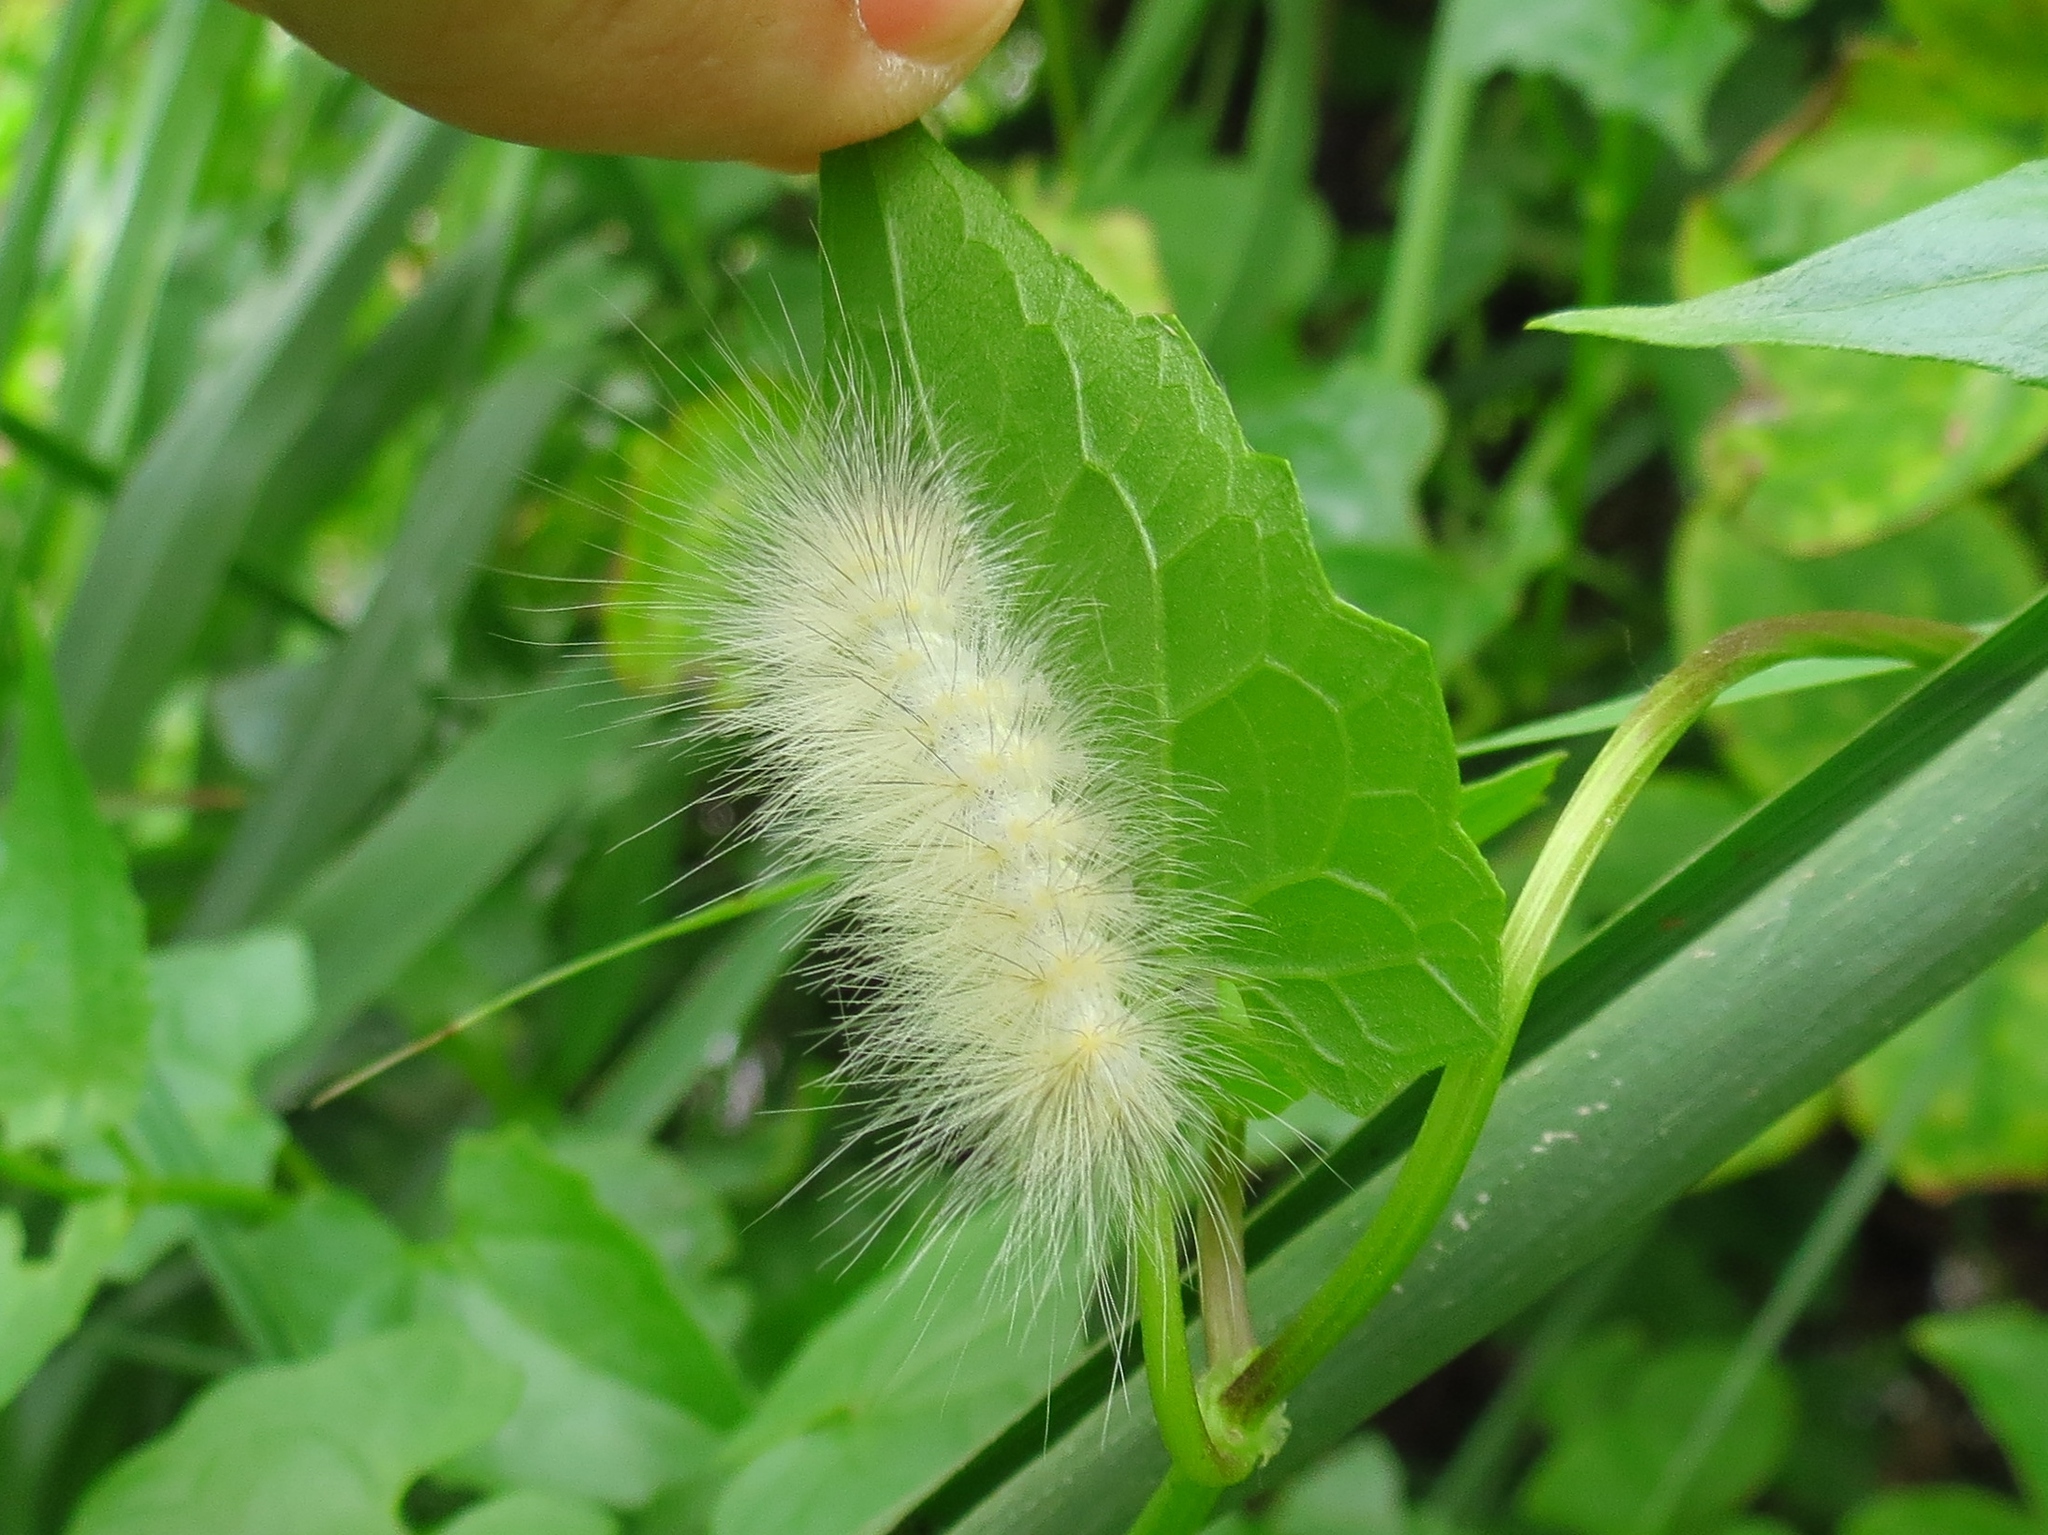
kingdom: Animalia
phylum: Arthropoda
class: Insecta
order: Lepidoptera
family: Erebidae
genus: Spilosoma
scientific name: Spilosoma virginica
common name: Virginia tiger moth
